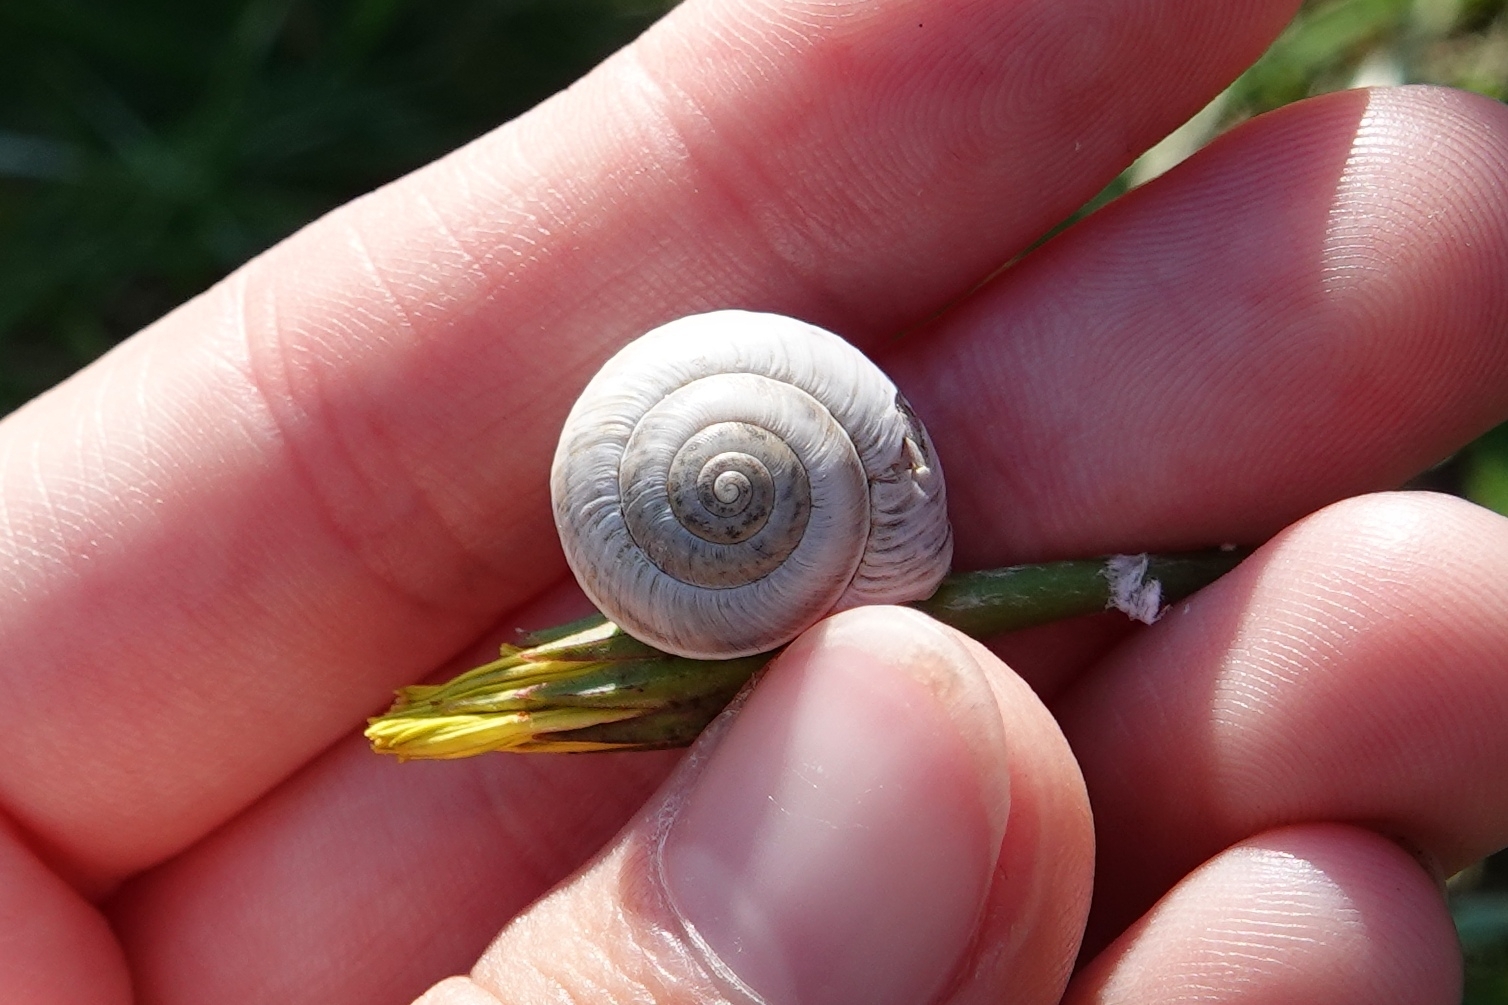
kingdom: Animalia
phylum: Mollusca
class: Gastropoda
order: Stylommatophora
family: Hygromiidae
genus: Harmozica
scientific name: Harmozica ravergiensis
